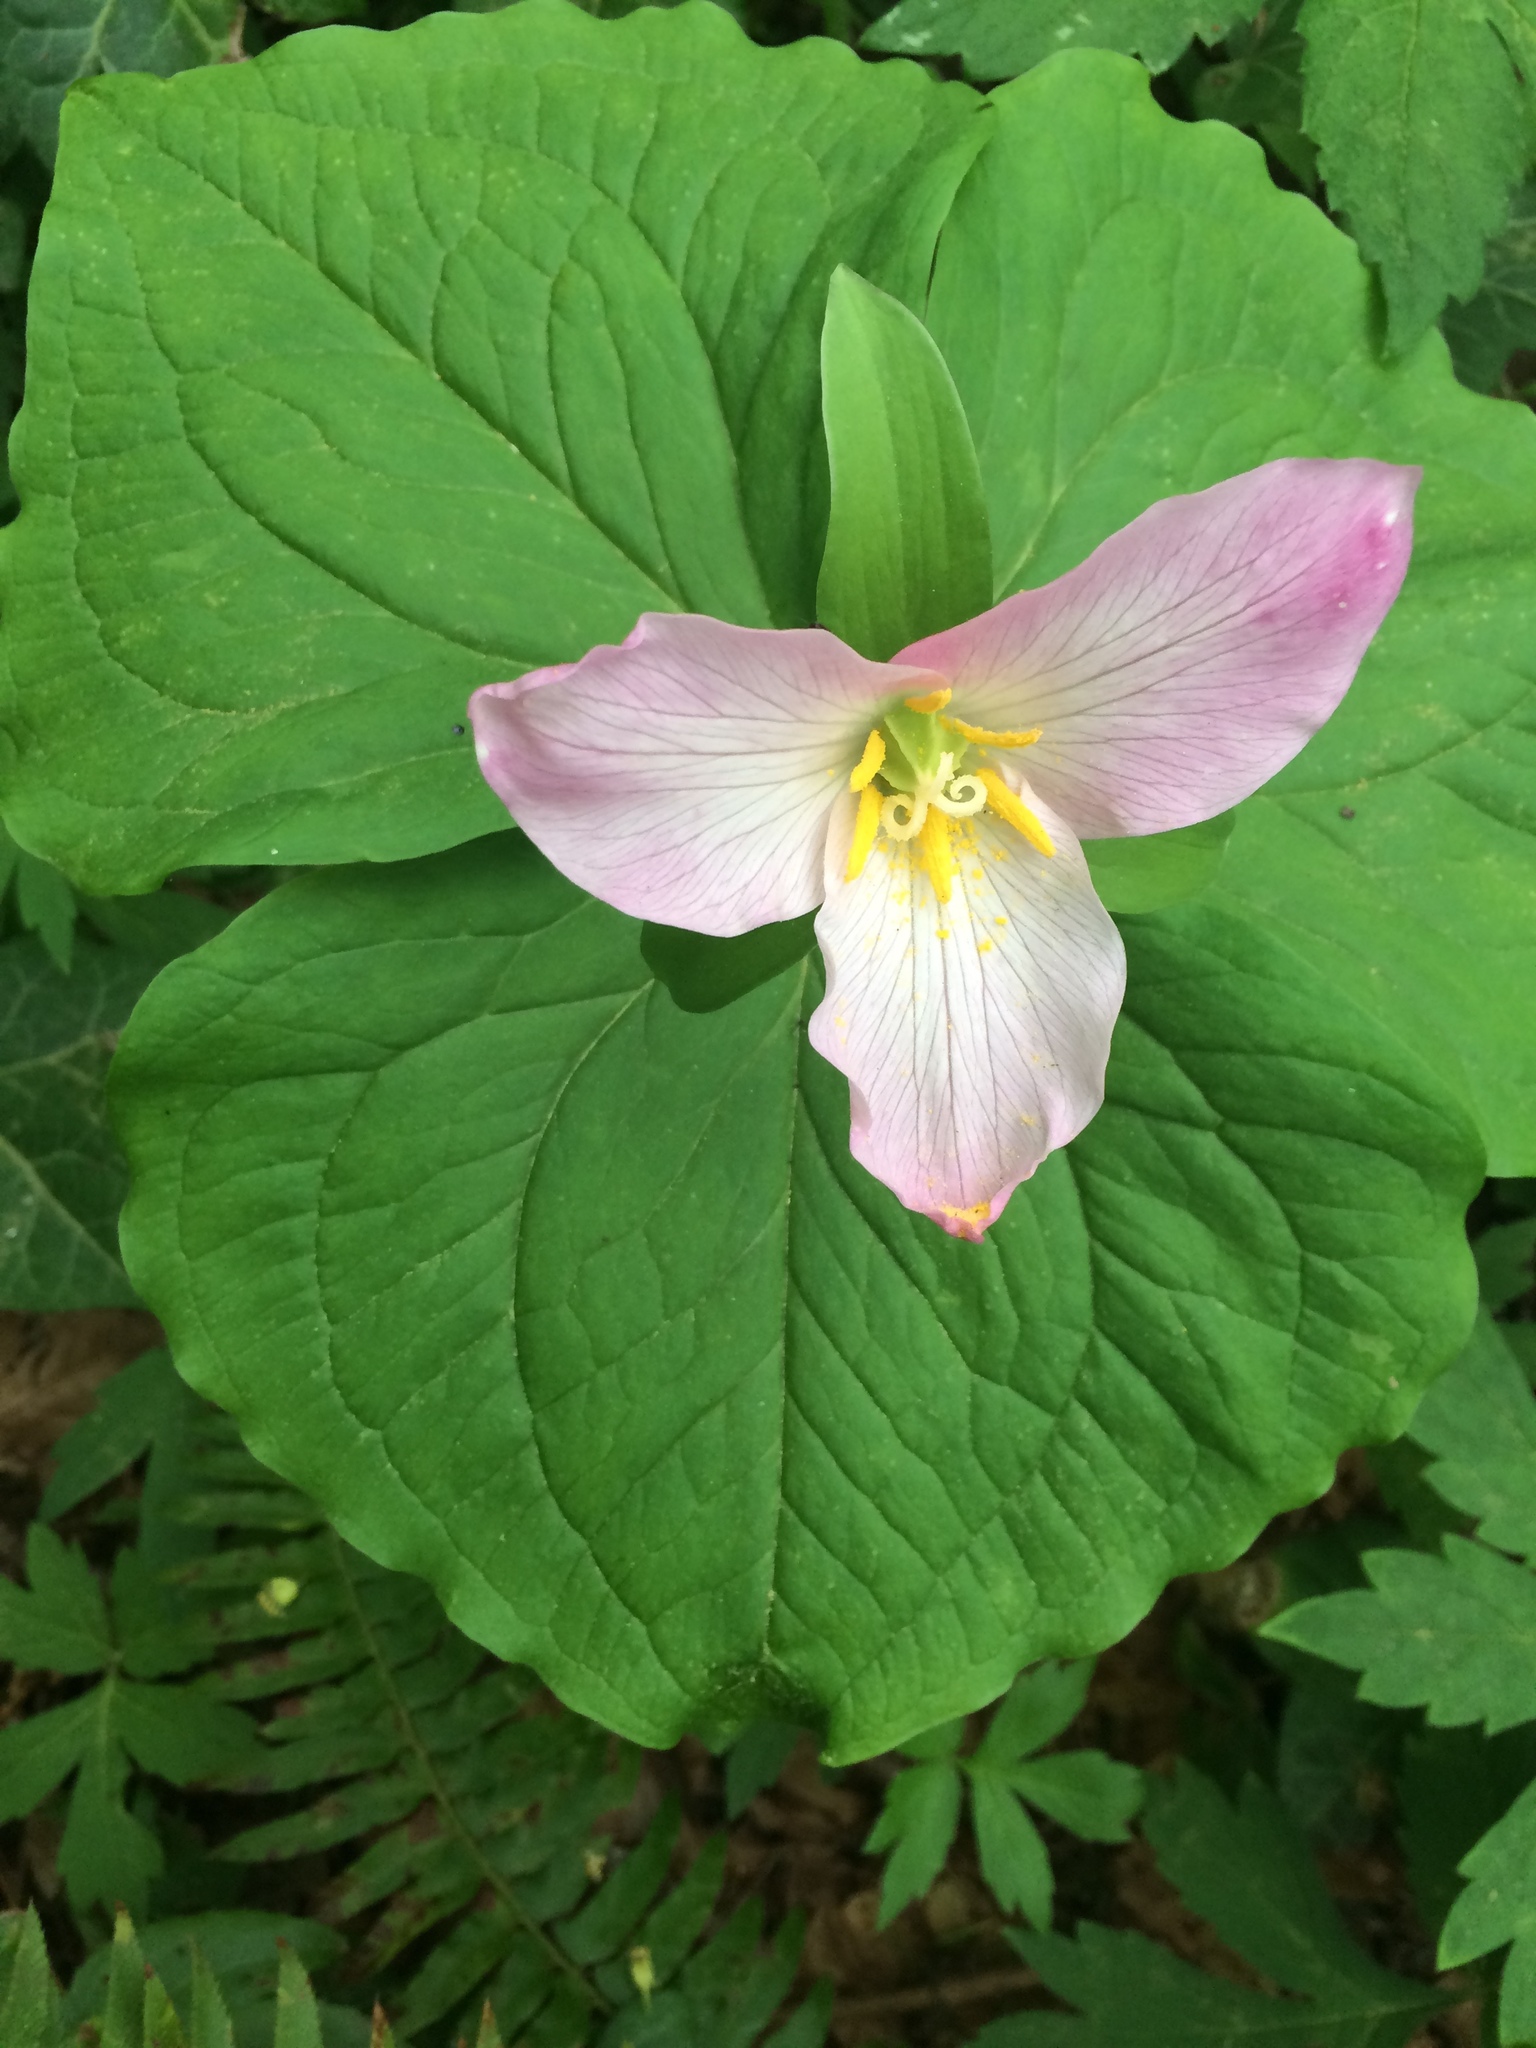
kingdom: Plantae
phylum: Tracheophyta
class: Liliopsida
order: Liliales
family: Melanthiaceae
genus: Trillium
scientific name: Trillium ovatum
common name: Pacific trillium
